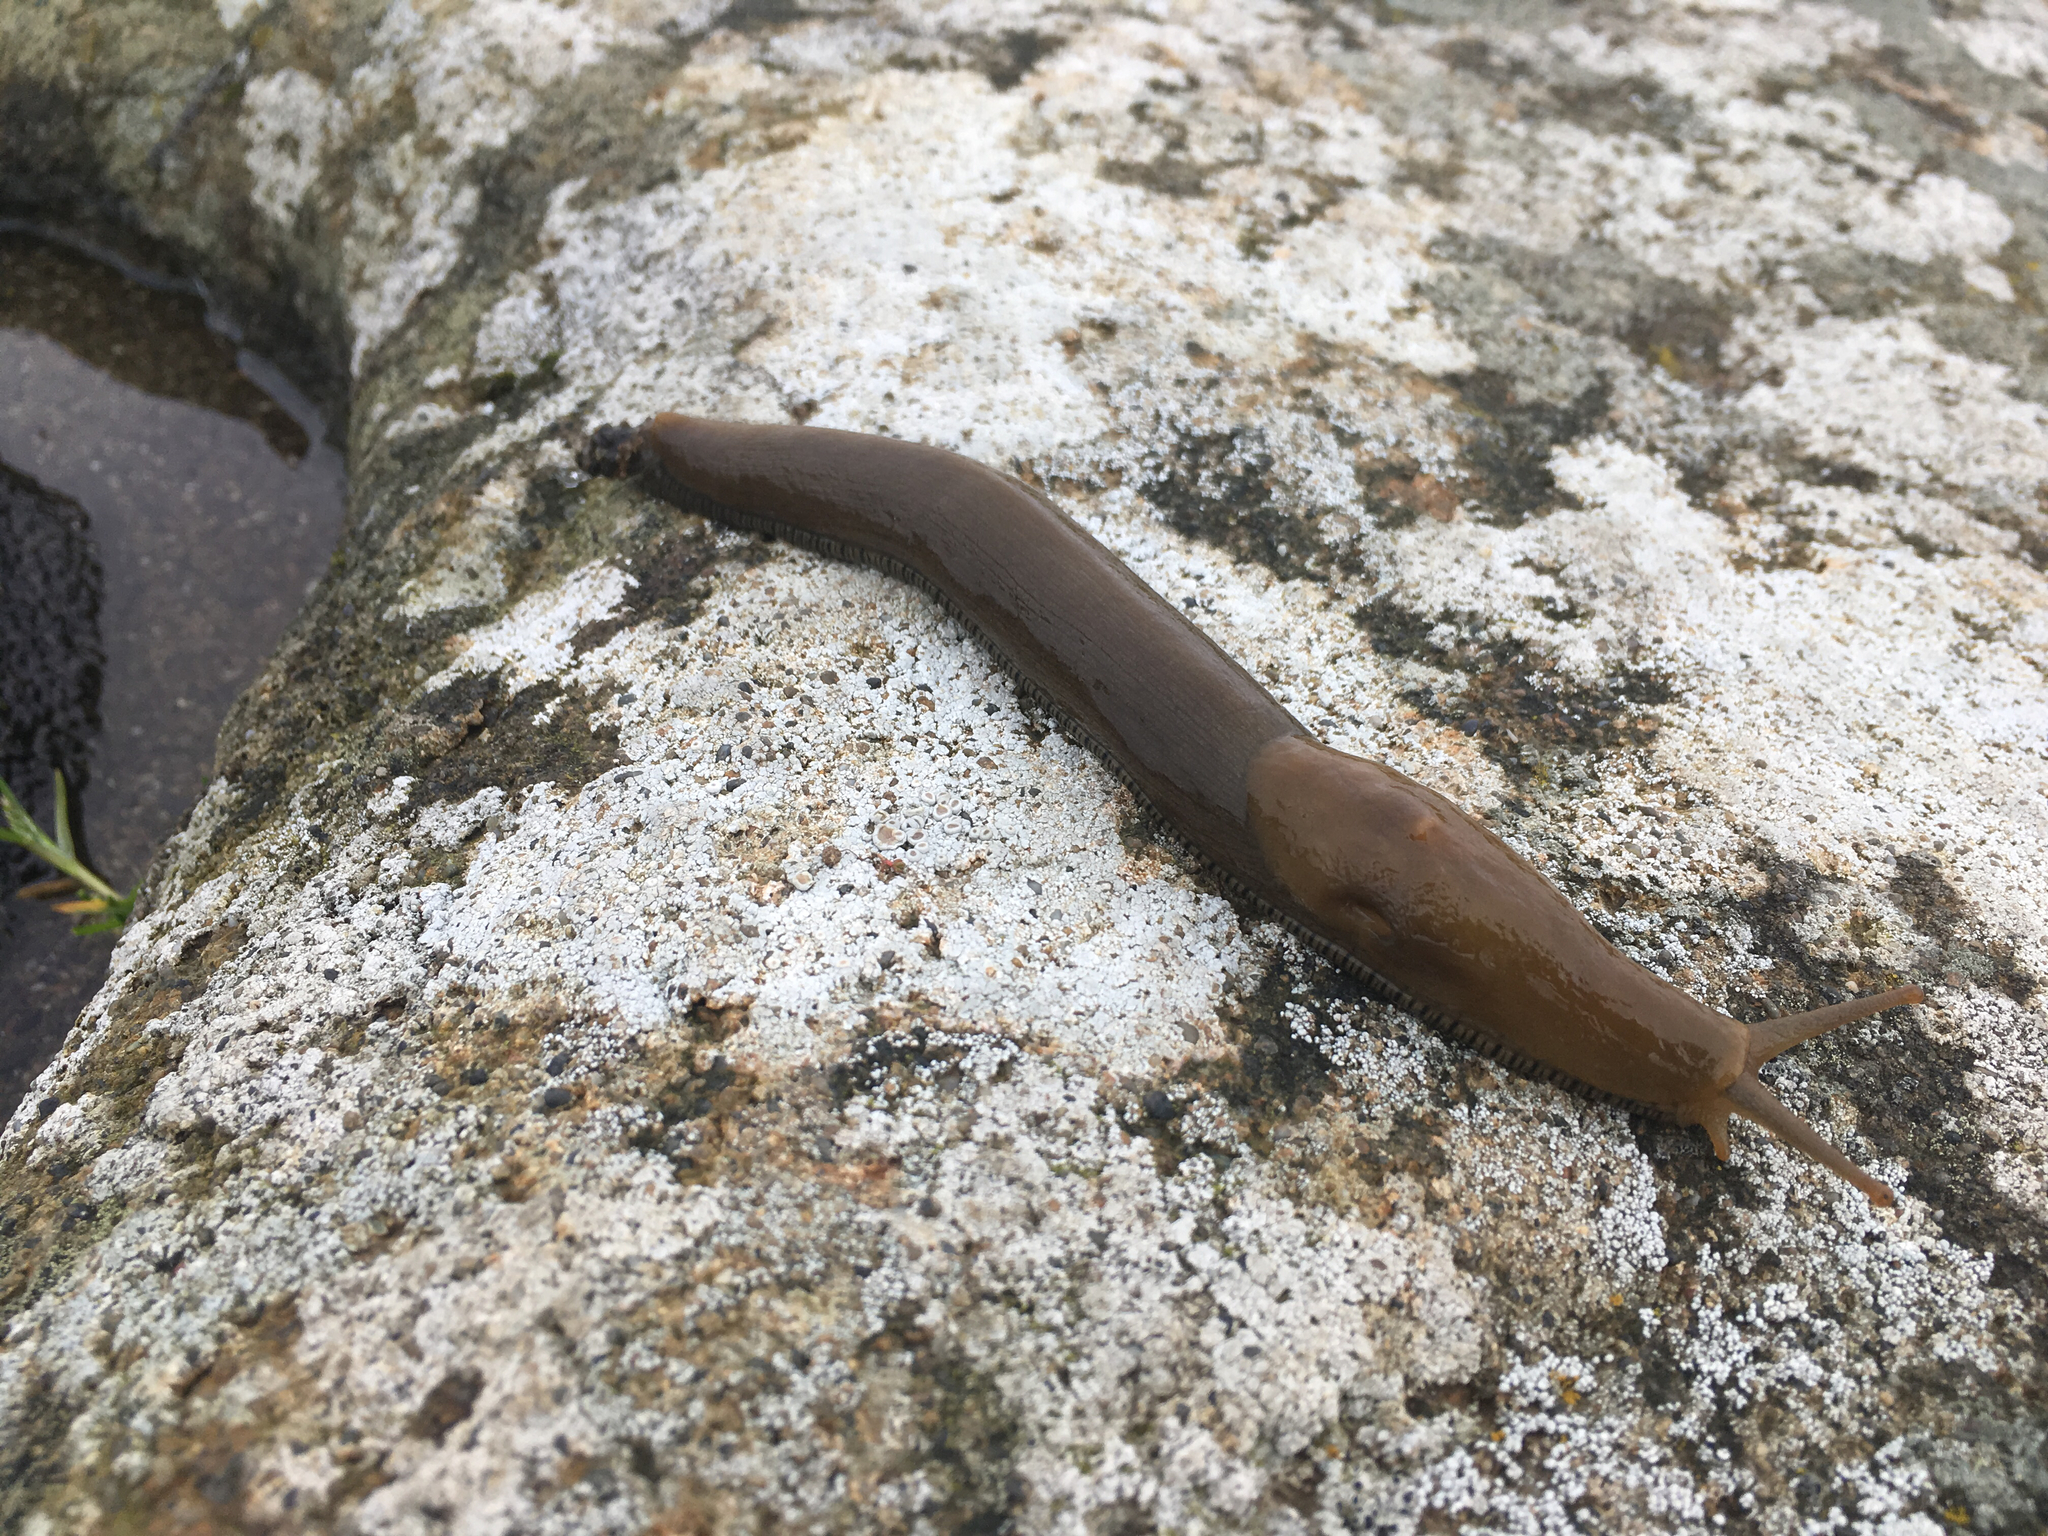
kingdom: Animalia
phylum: Mollusca
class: Gastropoda
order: Stylommatophora
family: Ariolimacidae
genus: Ariolimax
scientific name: Ariolimax buttoni
